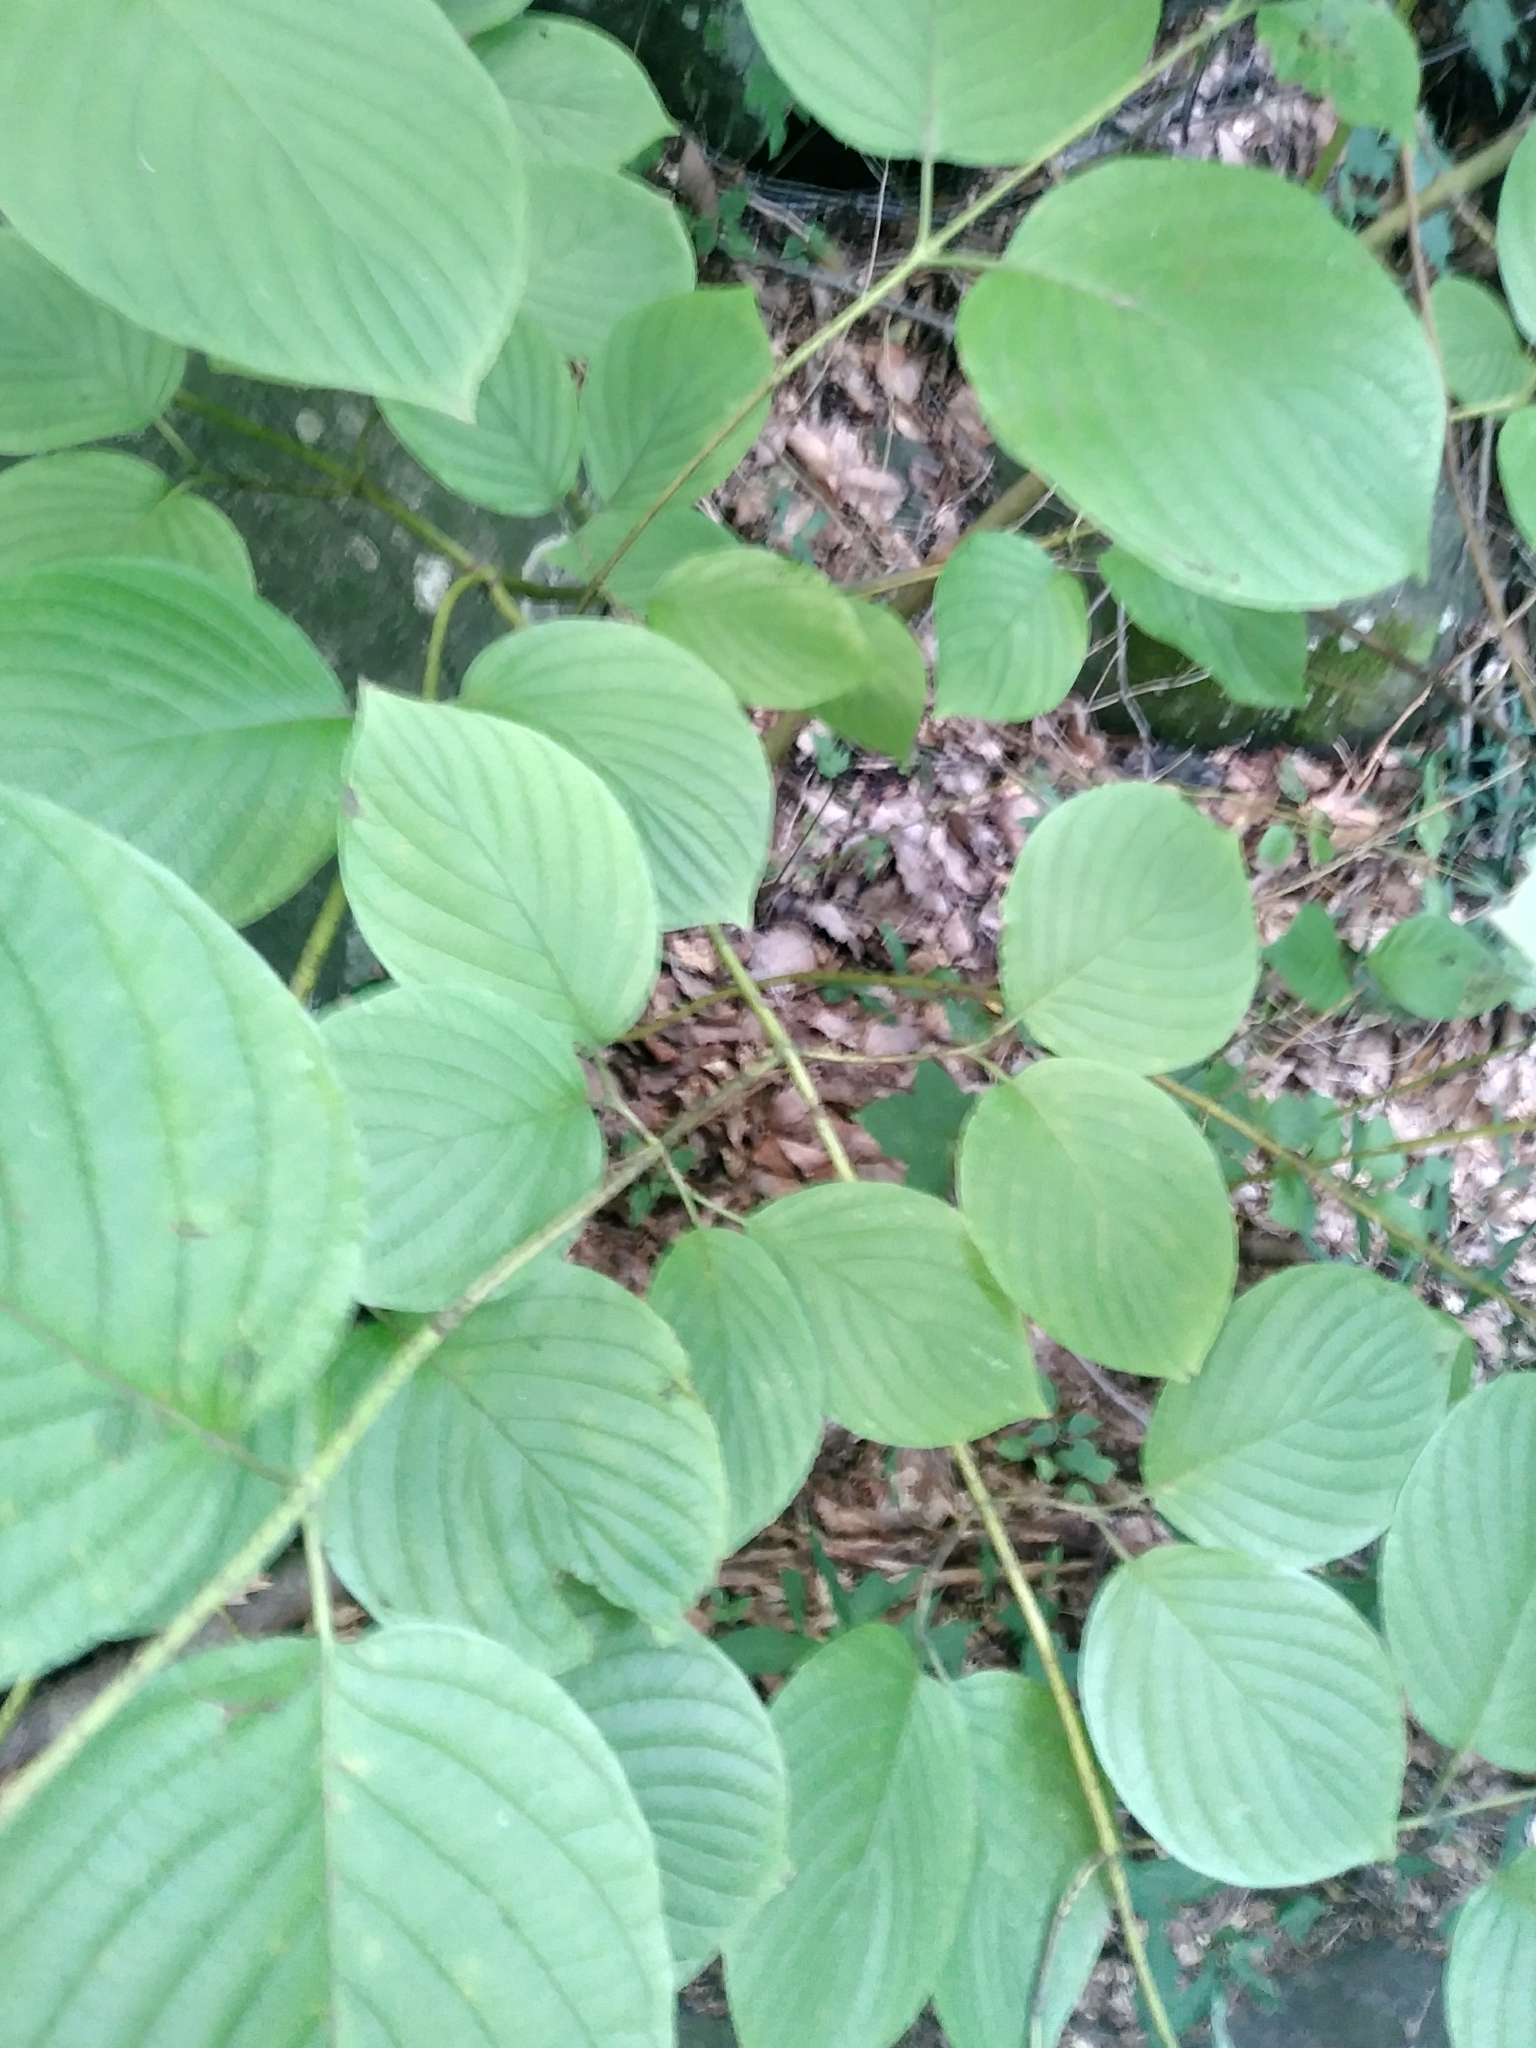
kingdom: Plantae
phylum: Tracheophyta
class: Magnoliopsida
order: Cornales
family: Cornaceae
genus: Cornus
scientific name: Cornus rugosa
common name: Round-leaf dogwood
